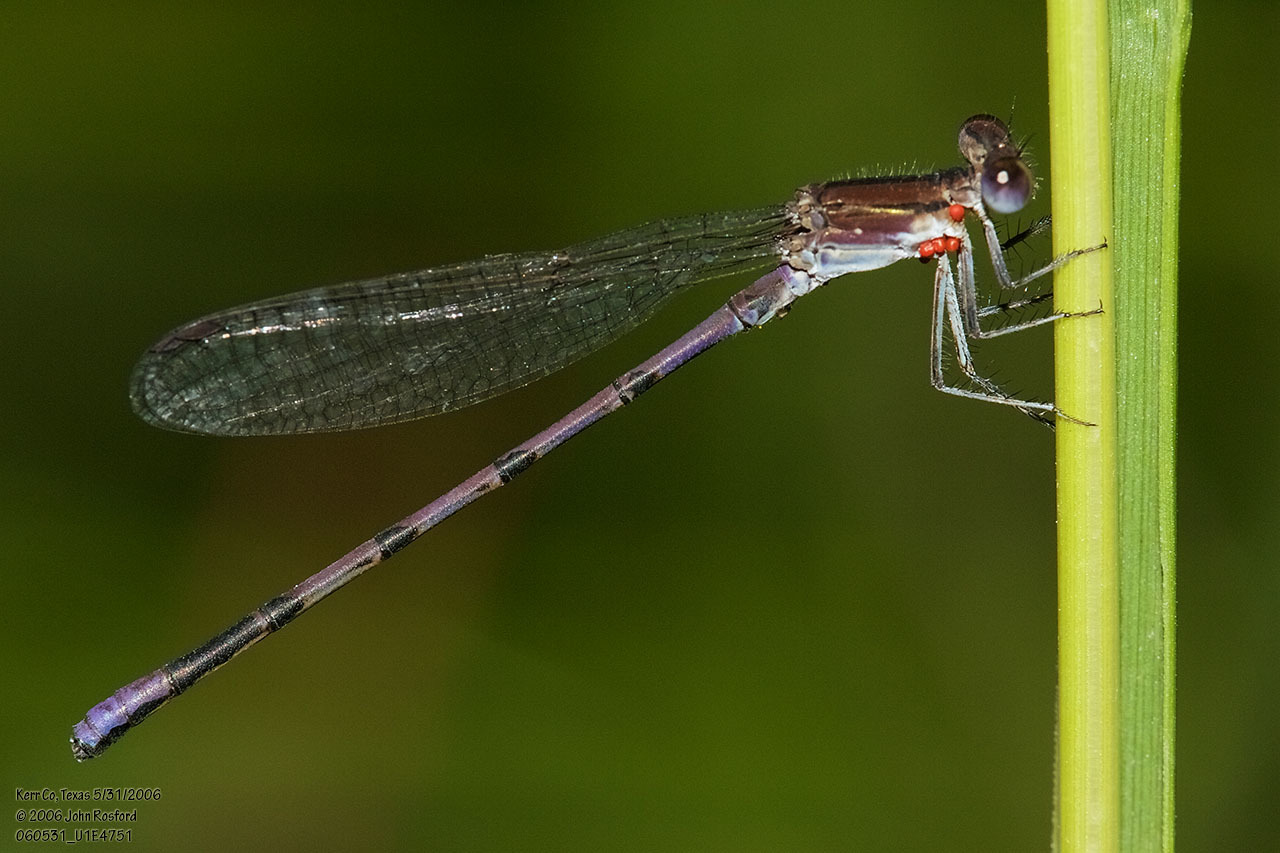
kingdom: Animalia
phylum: Arthropoda
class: Insecta
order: Odonata
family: Coenagrionidae
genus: Argia
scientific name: Argia fumipennis
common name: Variable dancer
